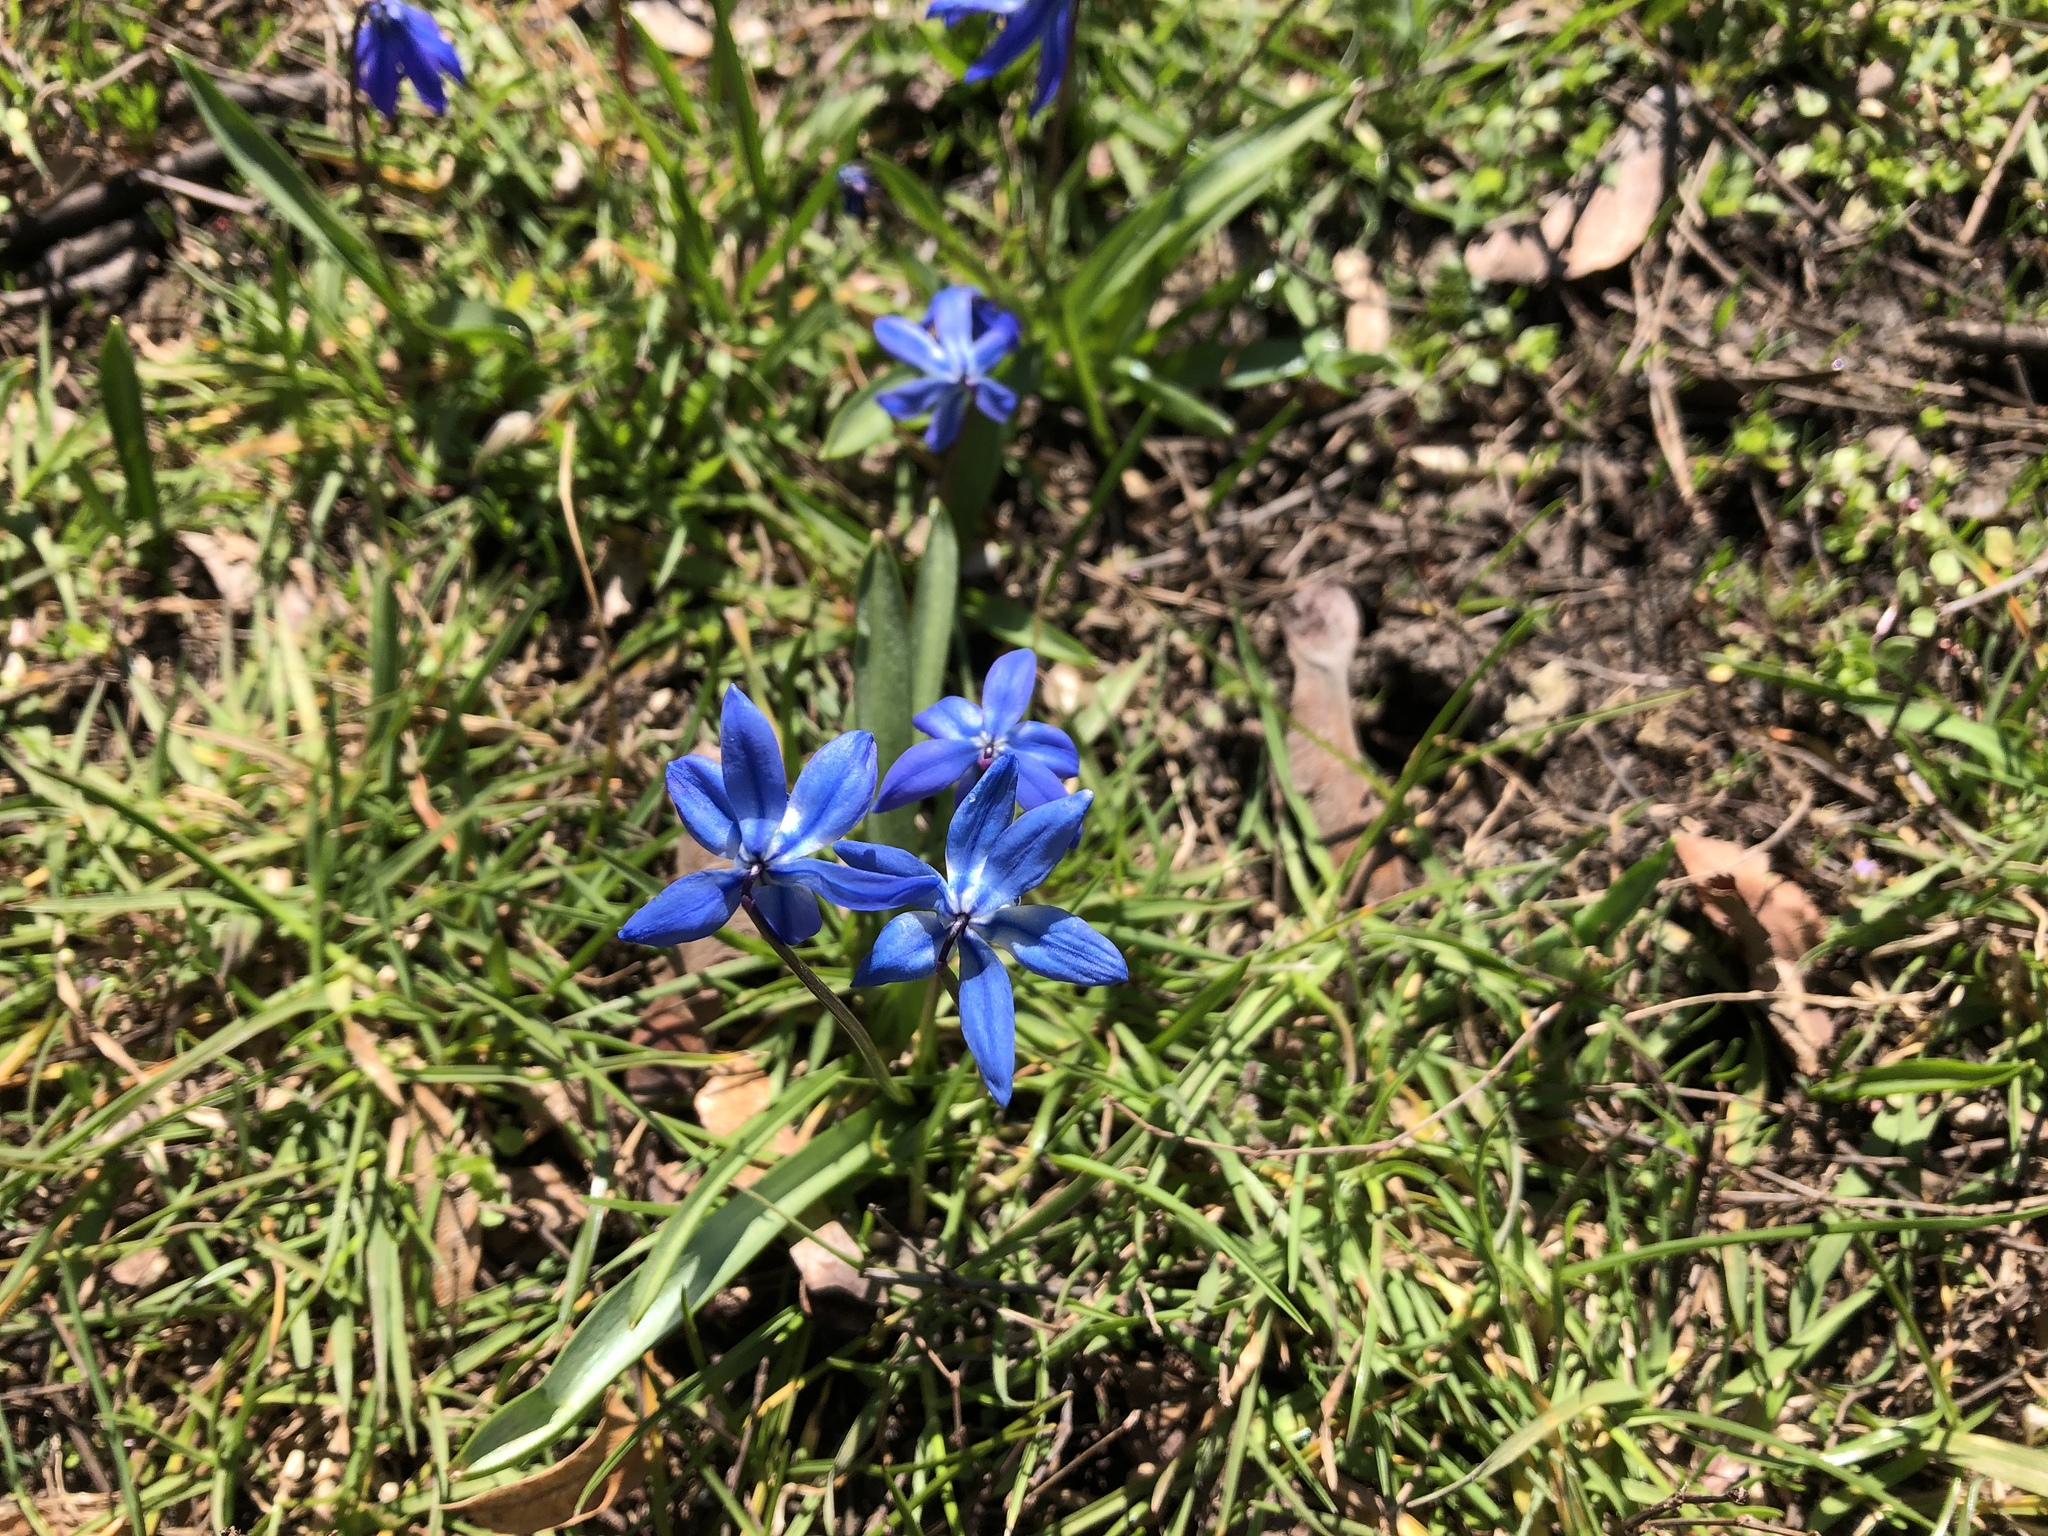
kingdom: Plantae
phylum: Tracheophyta
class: Liliopsida
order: Asparagales
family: Asparagaceae
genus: Scilla
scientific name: Scilla siberica
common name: Siberian squill
